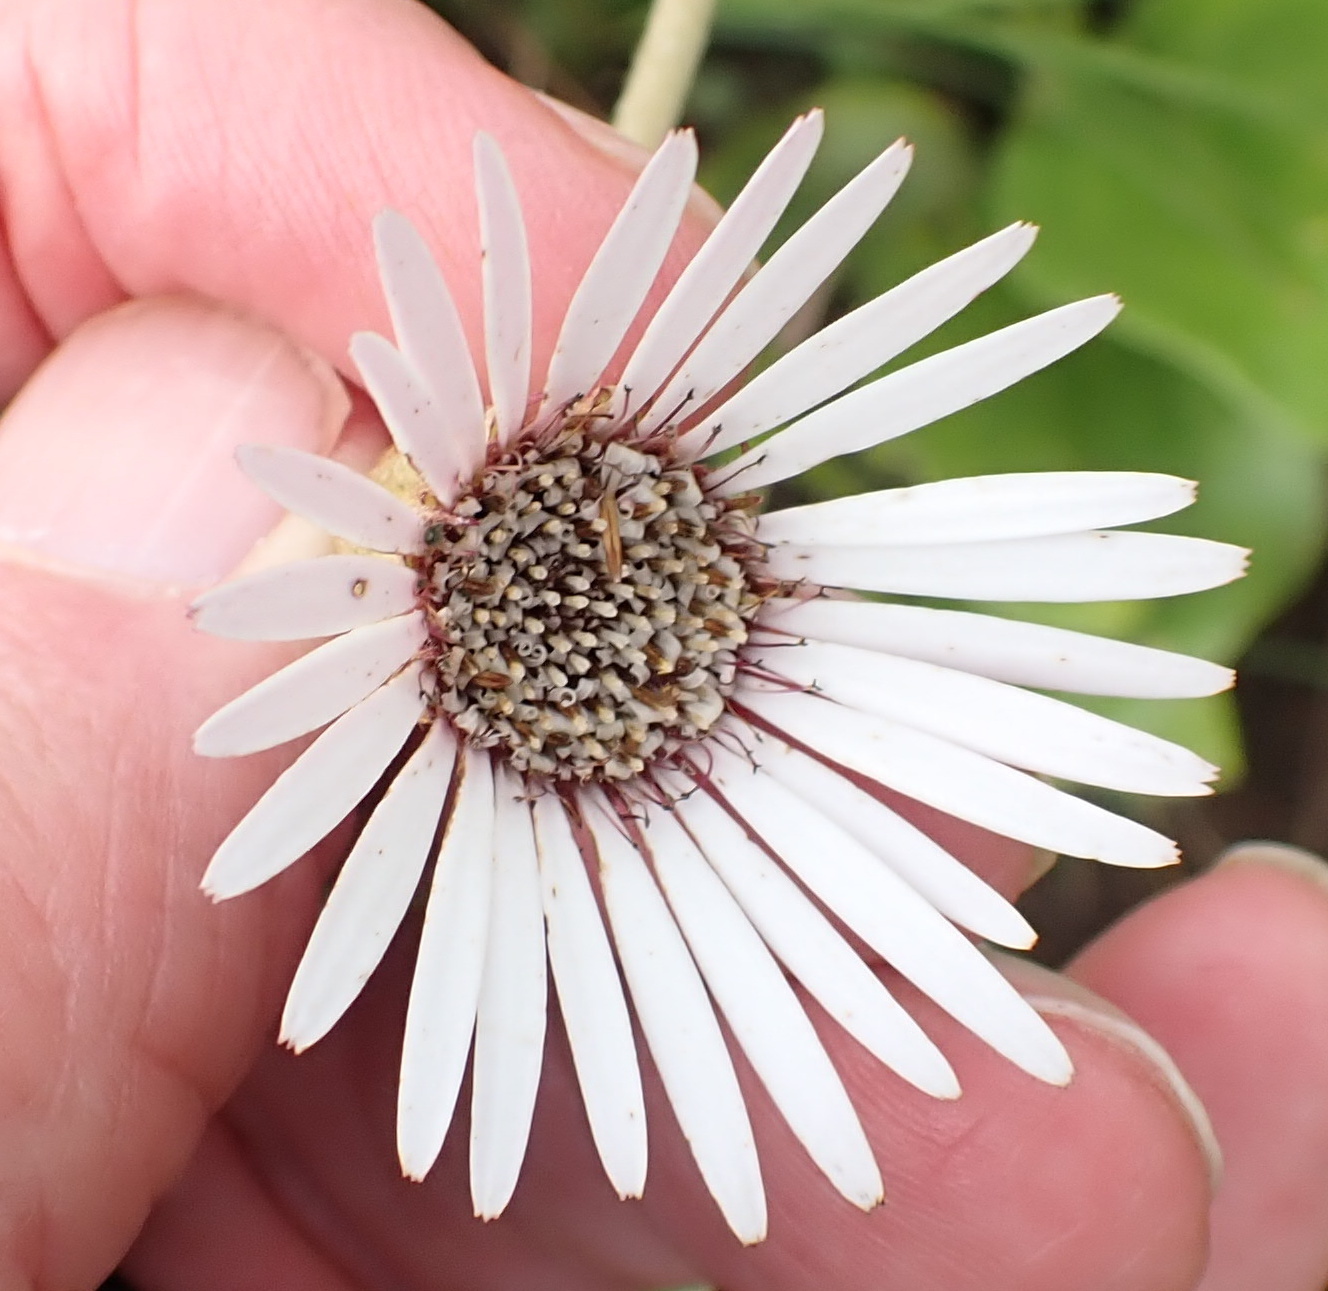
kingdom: Plantae
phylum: Tracheophyta
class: Magnoliopsida
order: Asterales
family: Asteraceae
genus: Gerbera
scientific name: Gerbera ambigua
